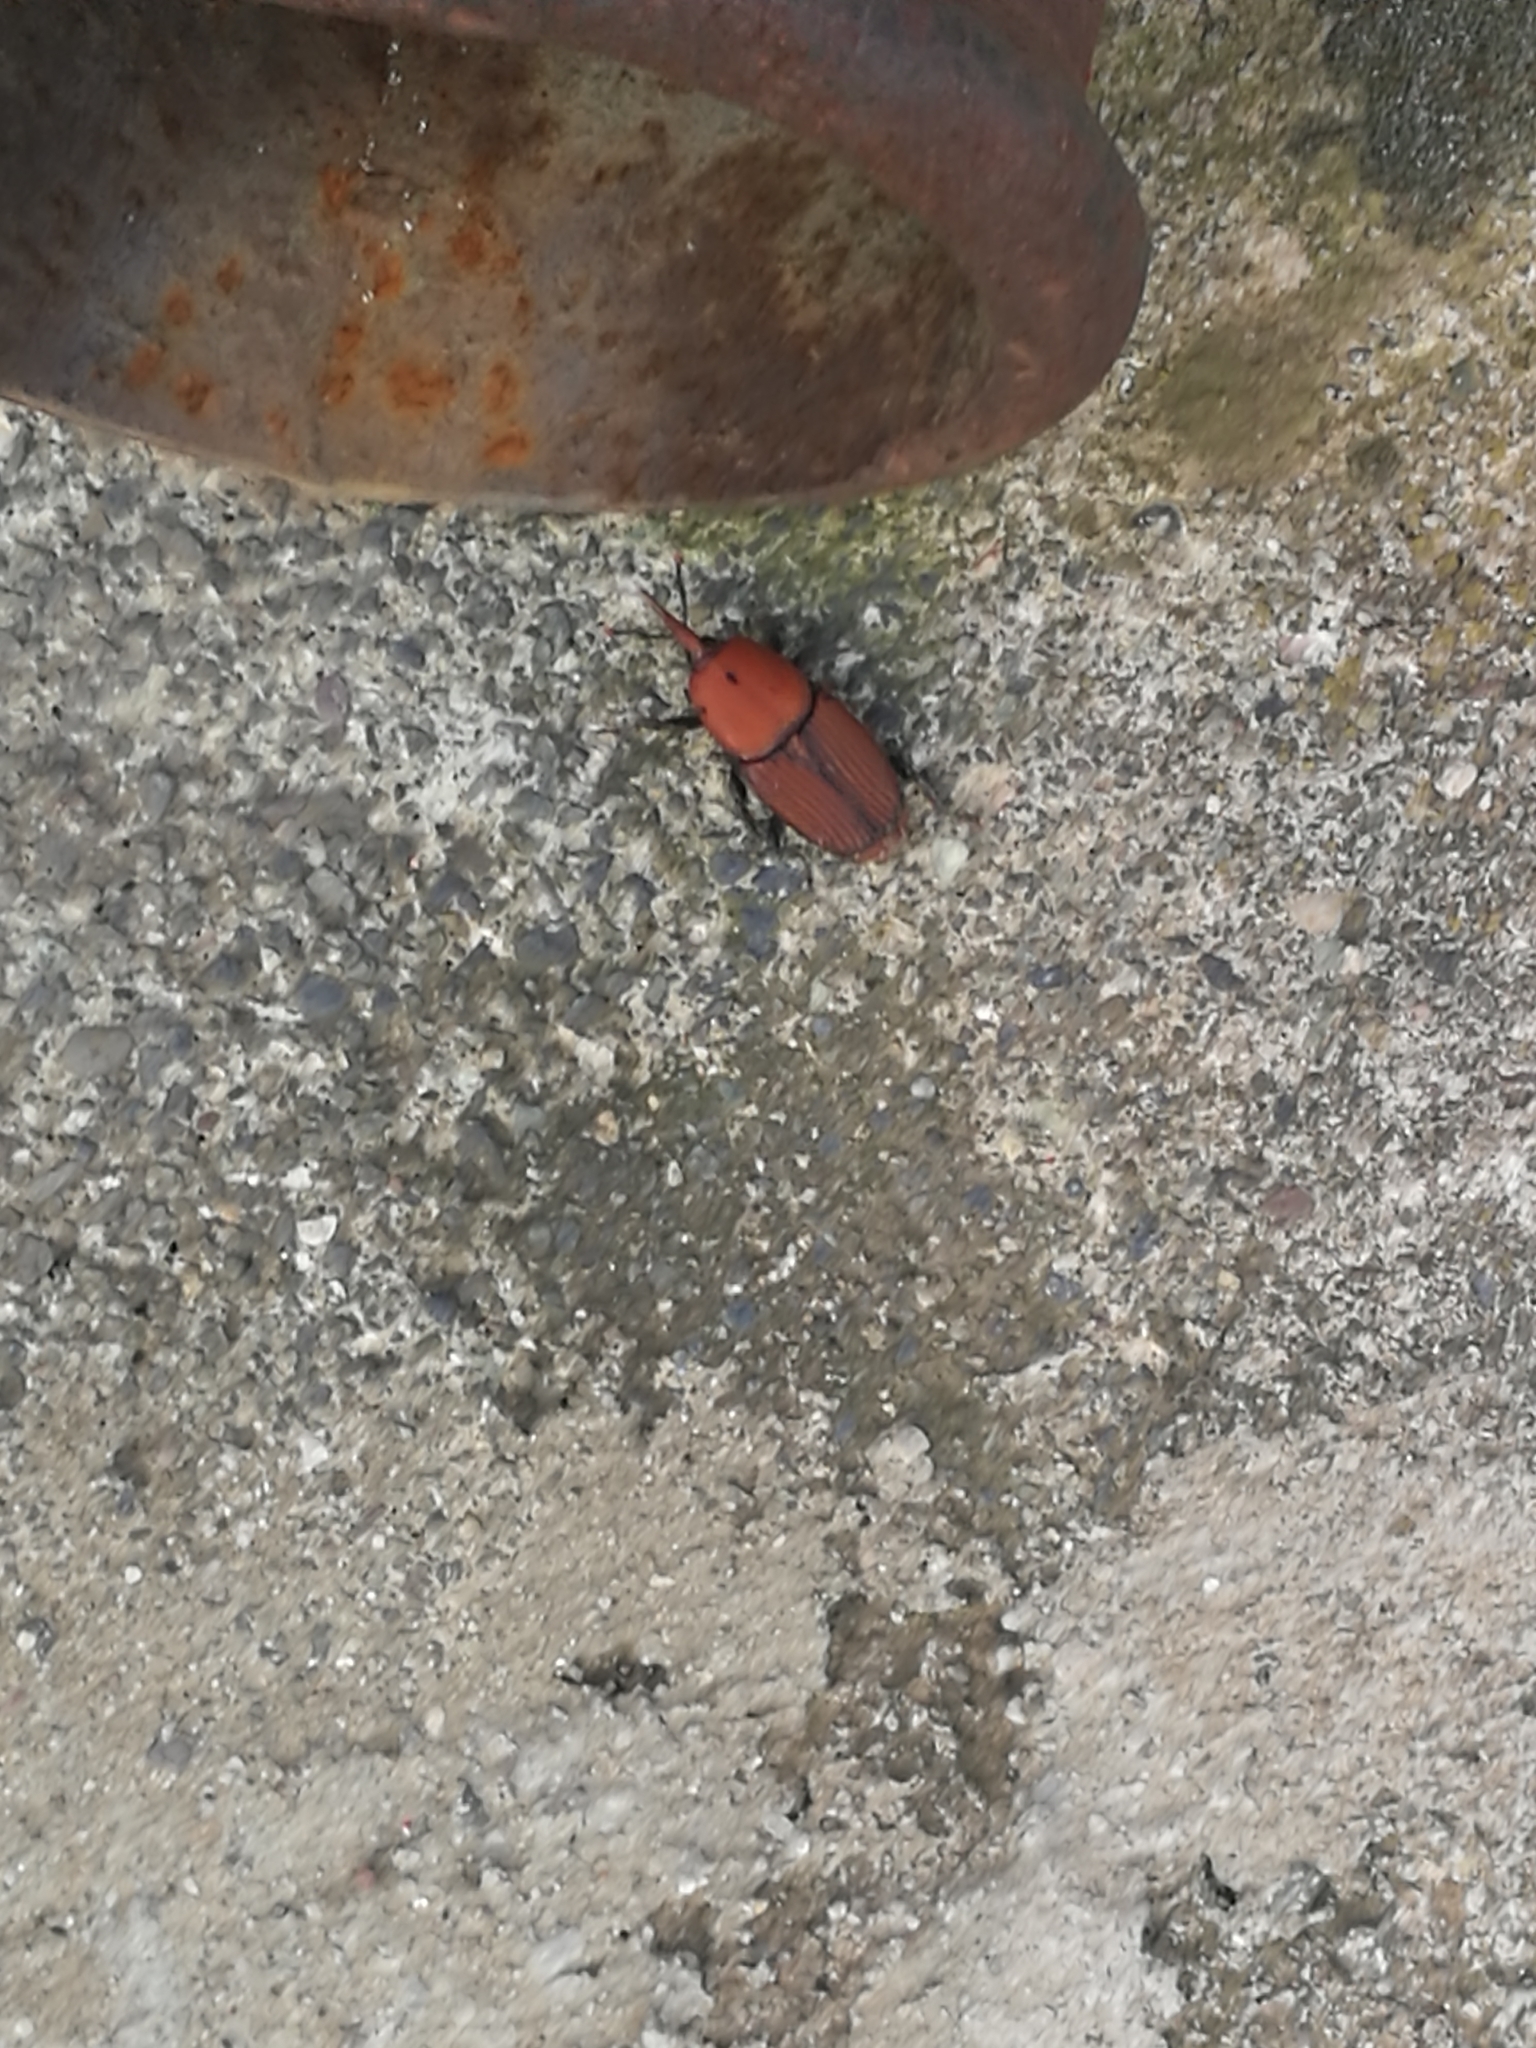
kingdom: Animalia
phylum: Arthropoda
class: Insecta
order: Coleoptera
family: Dryophthoridae
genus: Rhynchophorus
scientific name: Rhynchophorus ferrugineus
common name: Red palm weevil
